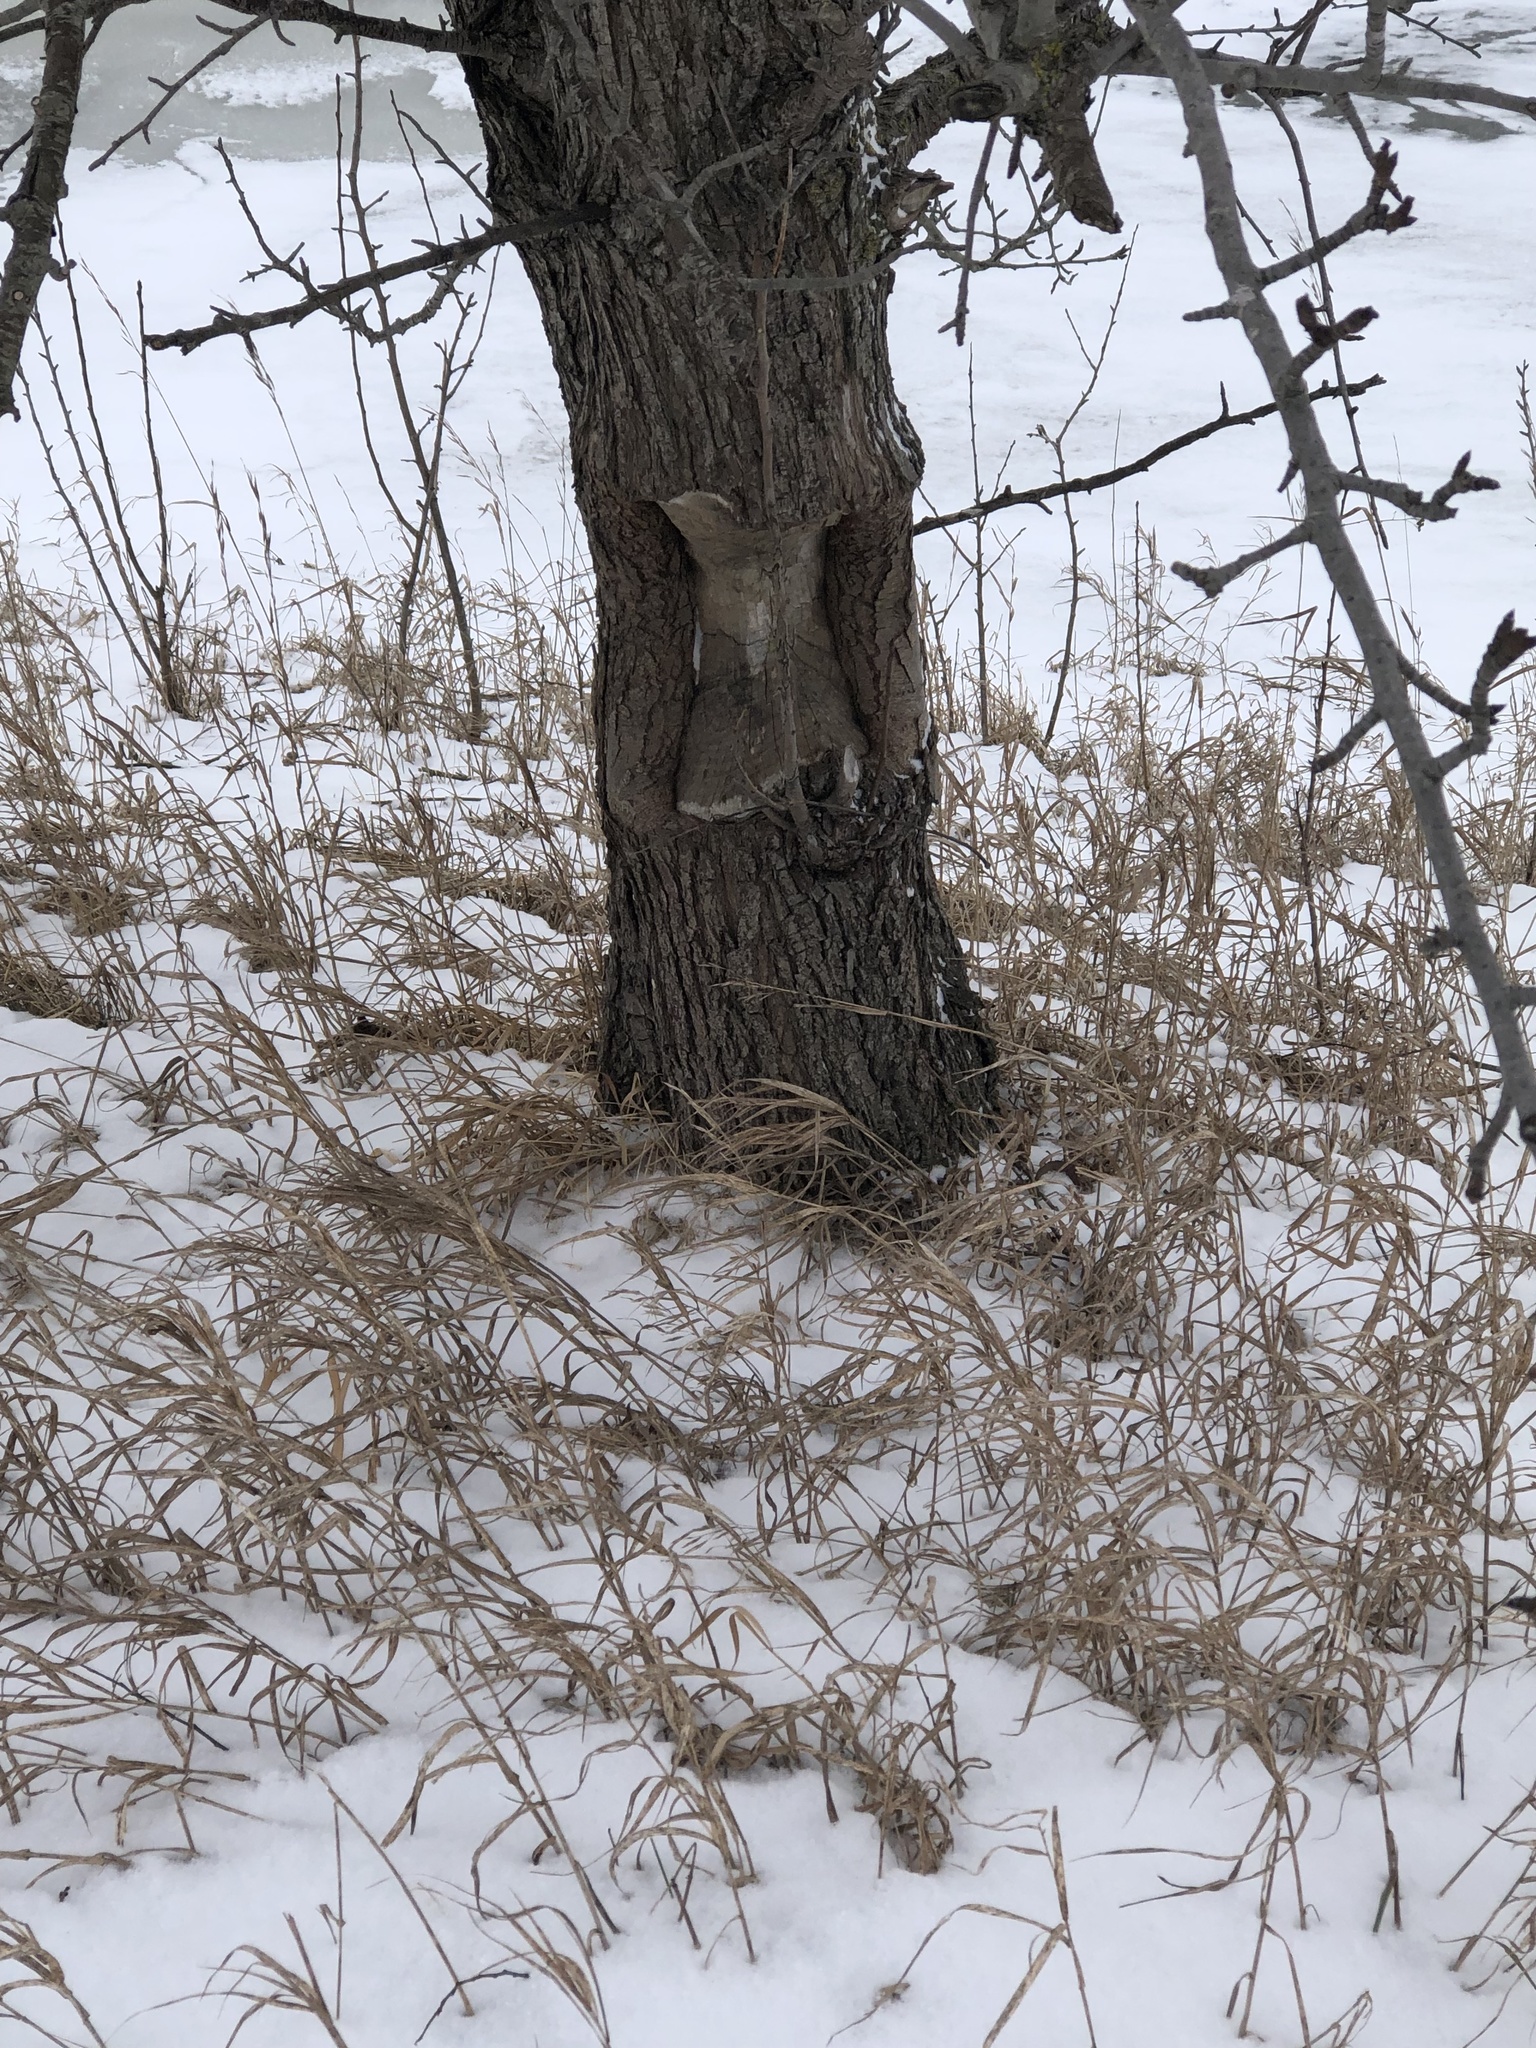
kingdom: Animalia
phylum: Chordata
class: Mammalia
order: Rodentia
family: Castoridae
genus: Castor
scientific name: Castor canadensis
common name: American beaver
